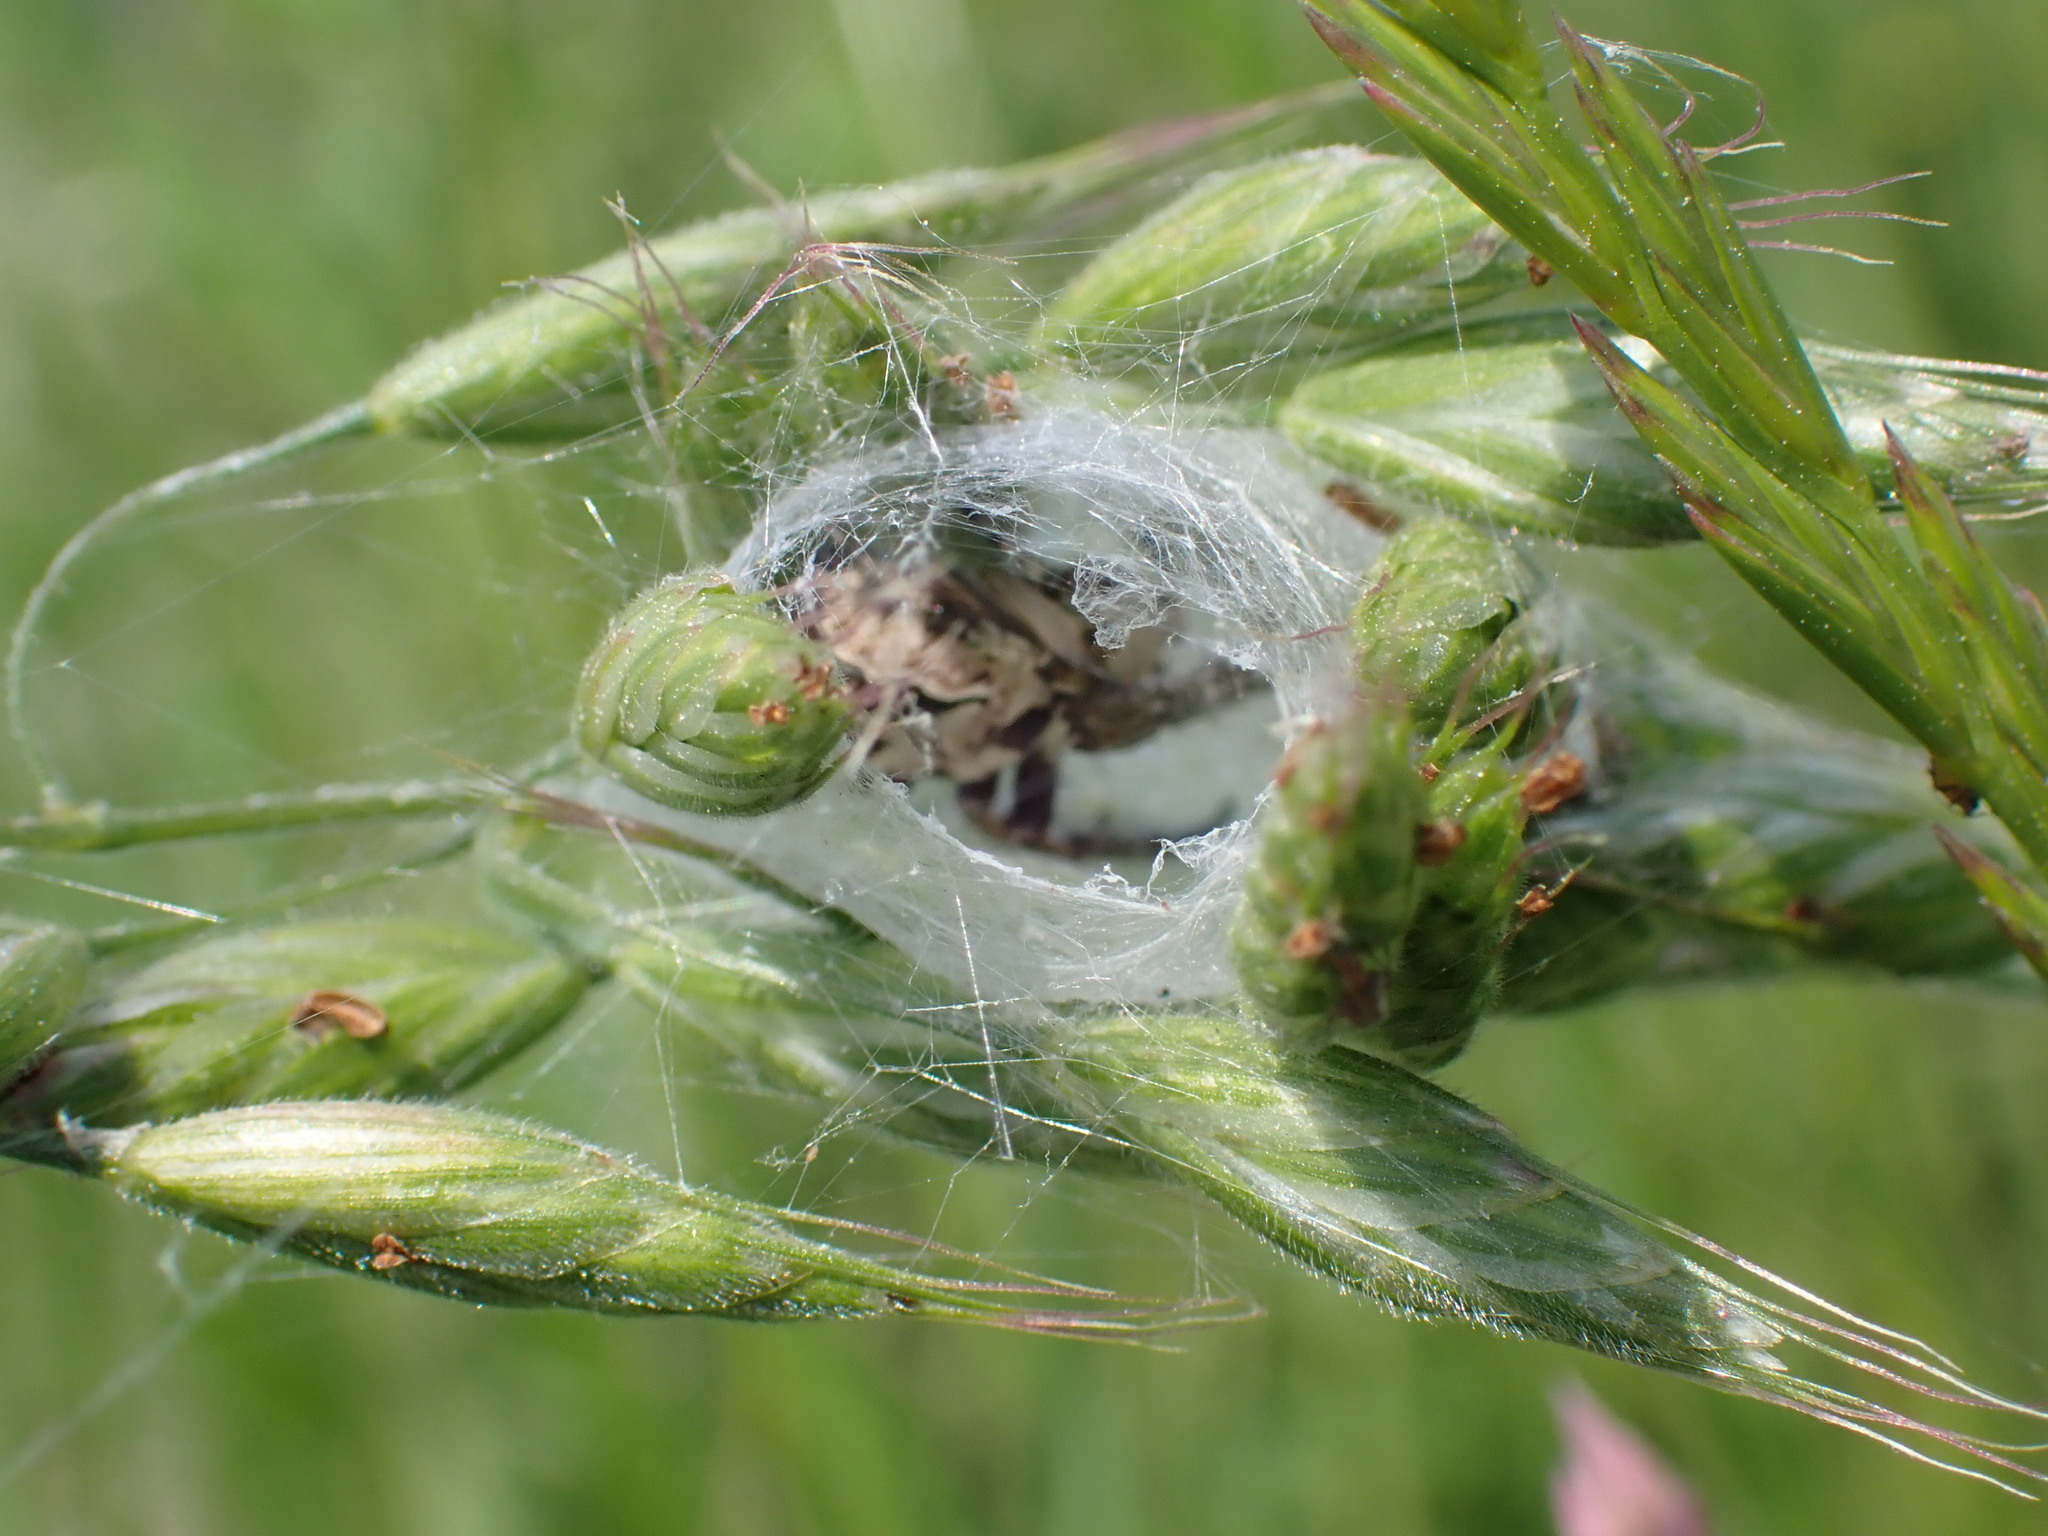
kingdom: Plantae
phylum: Tracheophyta
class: Liliopsida
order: Poales
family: Poaceae
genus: Bromus
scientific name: Bromus hordeaceus
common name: Soft brome
